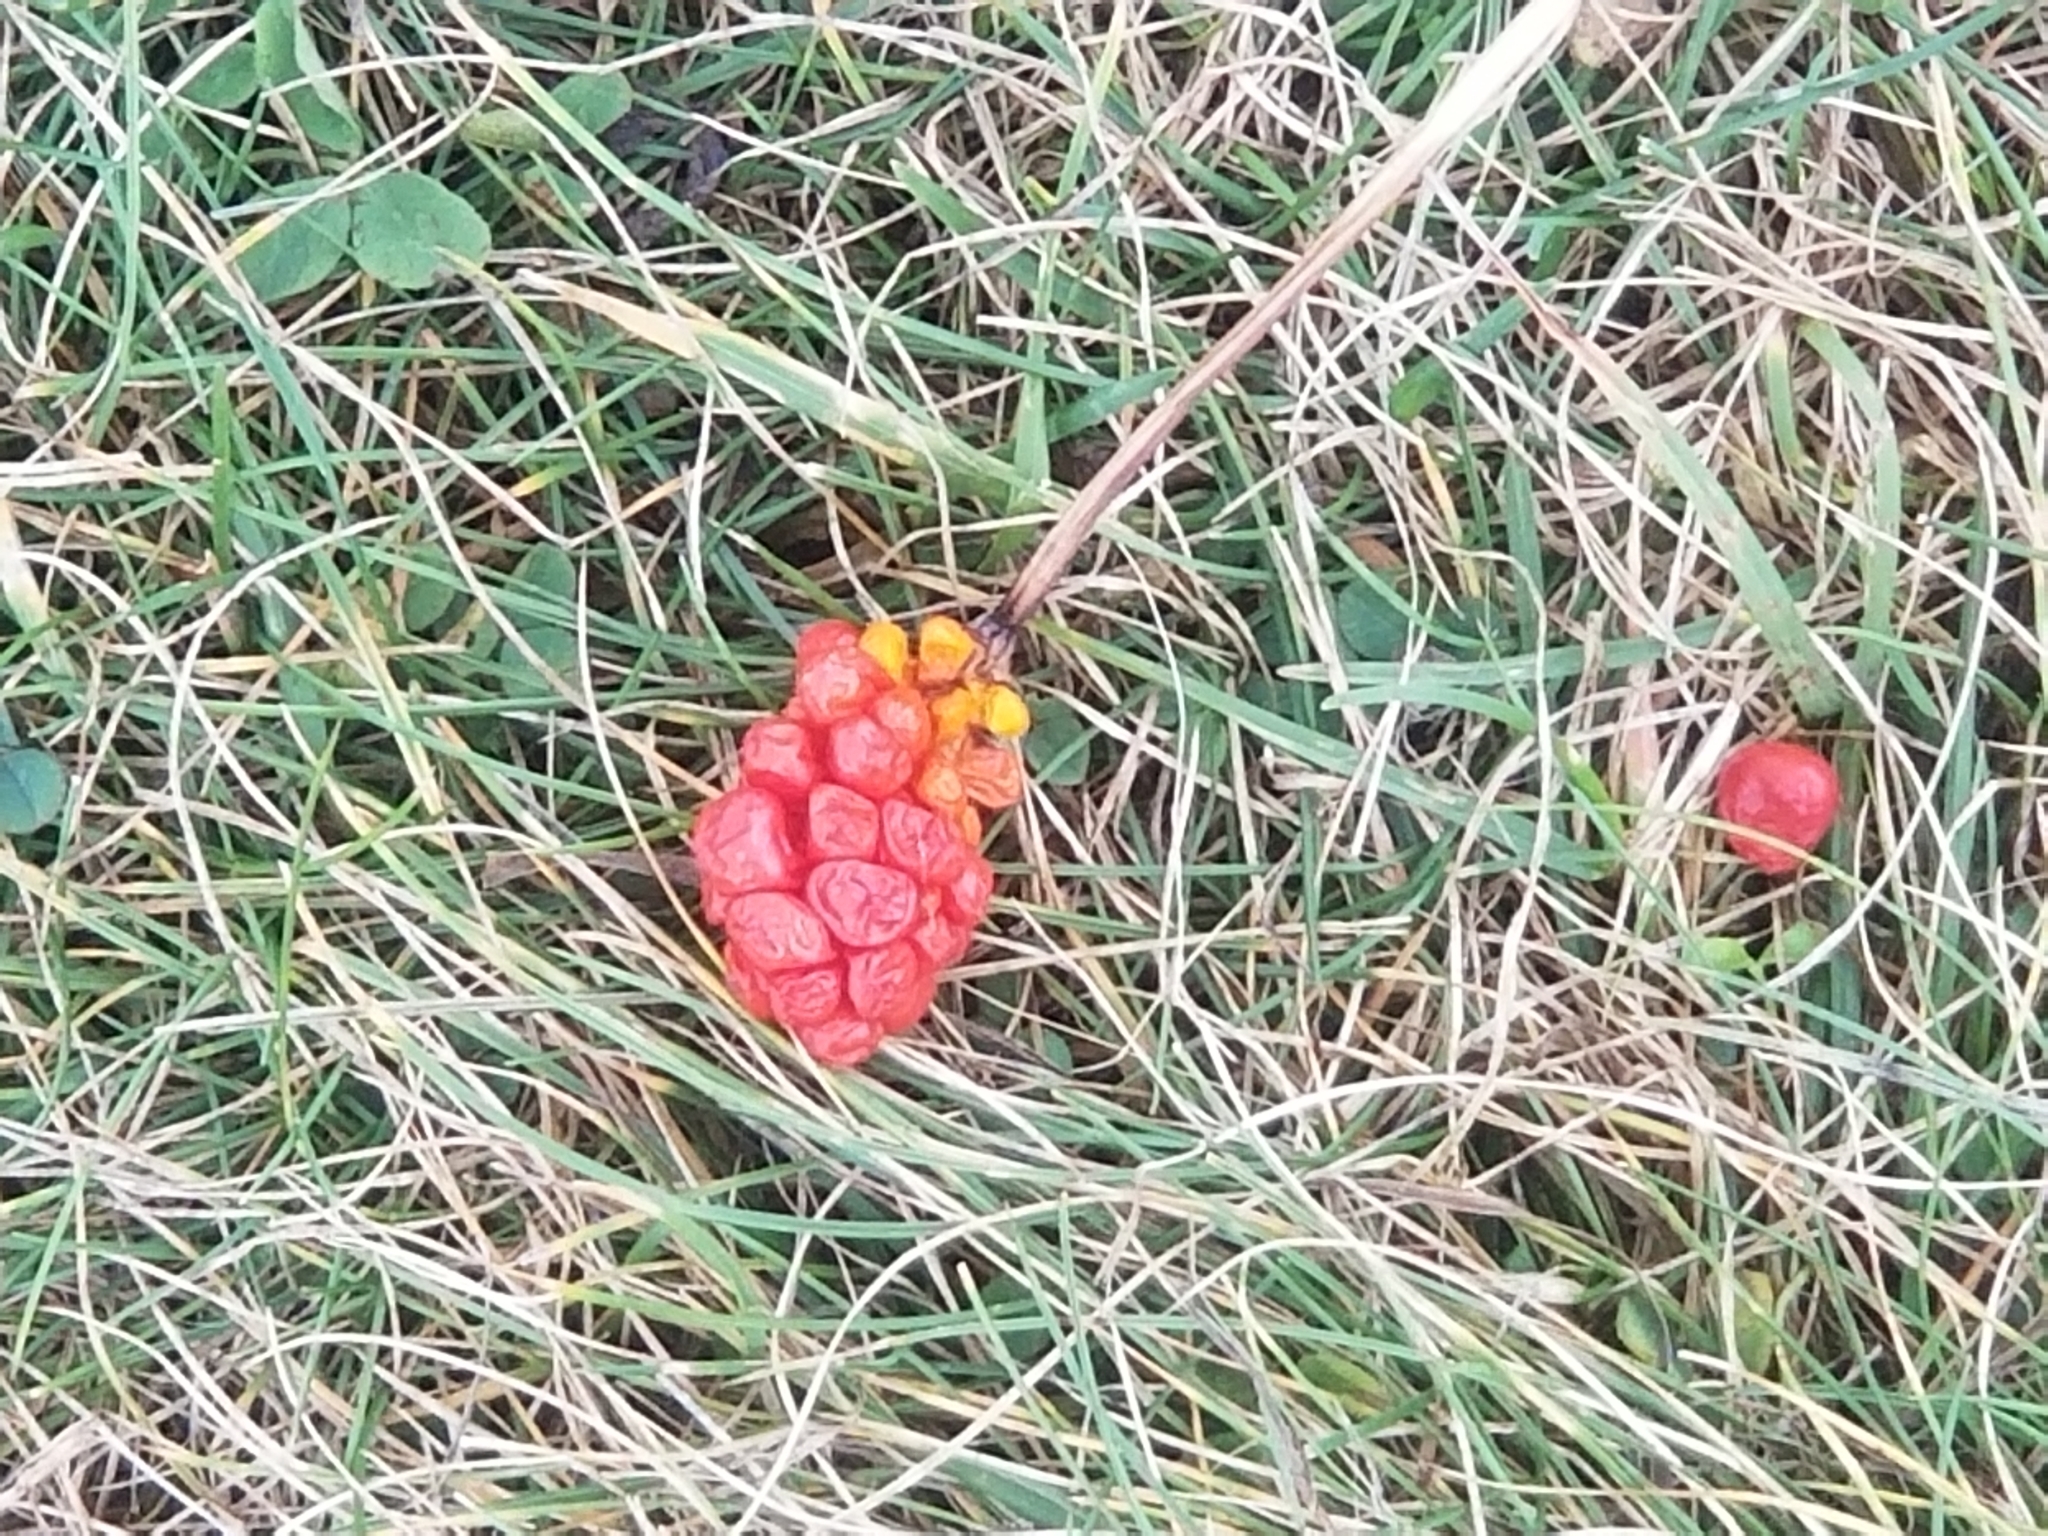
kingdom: Plantae
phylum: Tracheophyta
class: Liliopsida
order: Alismatales
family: Araceae
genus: Arisaema
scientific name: Arisaema triphyllum
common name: Jack-in-the-pulpit
